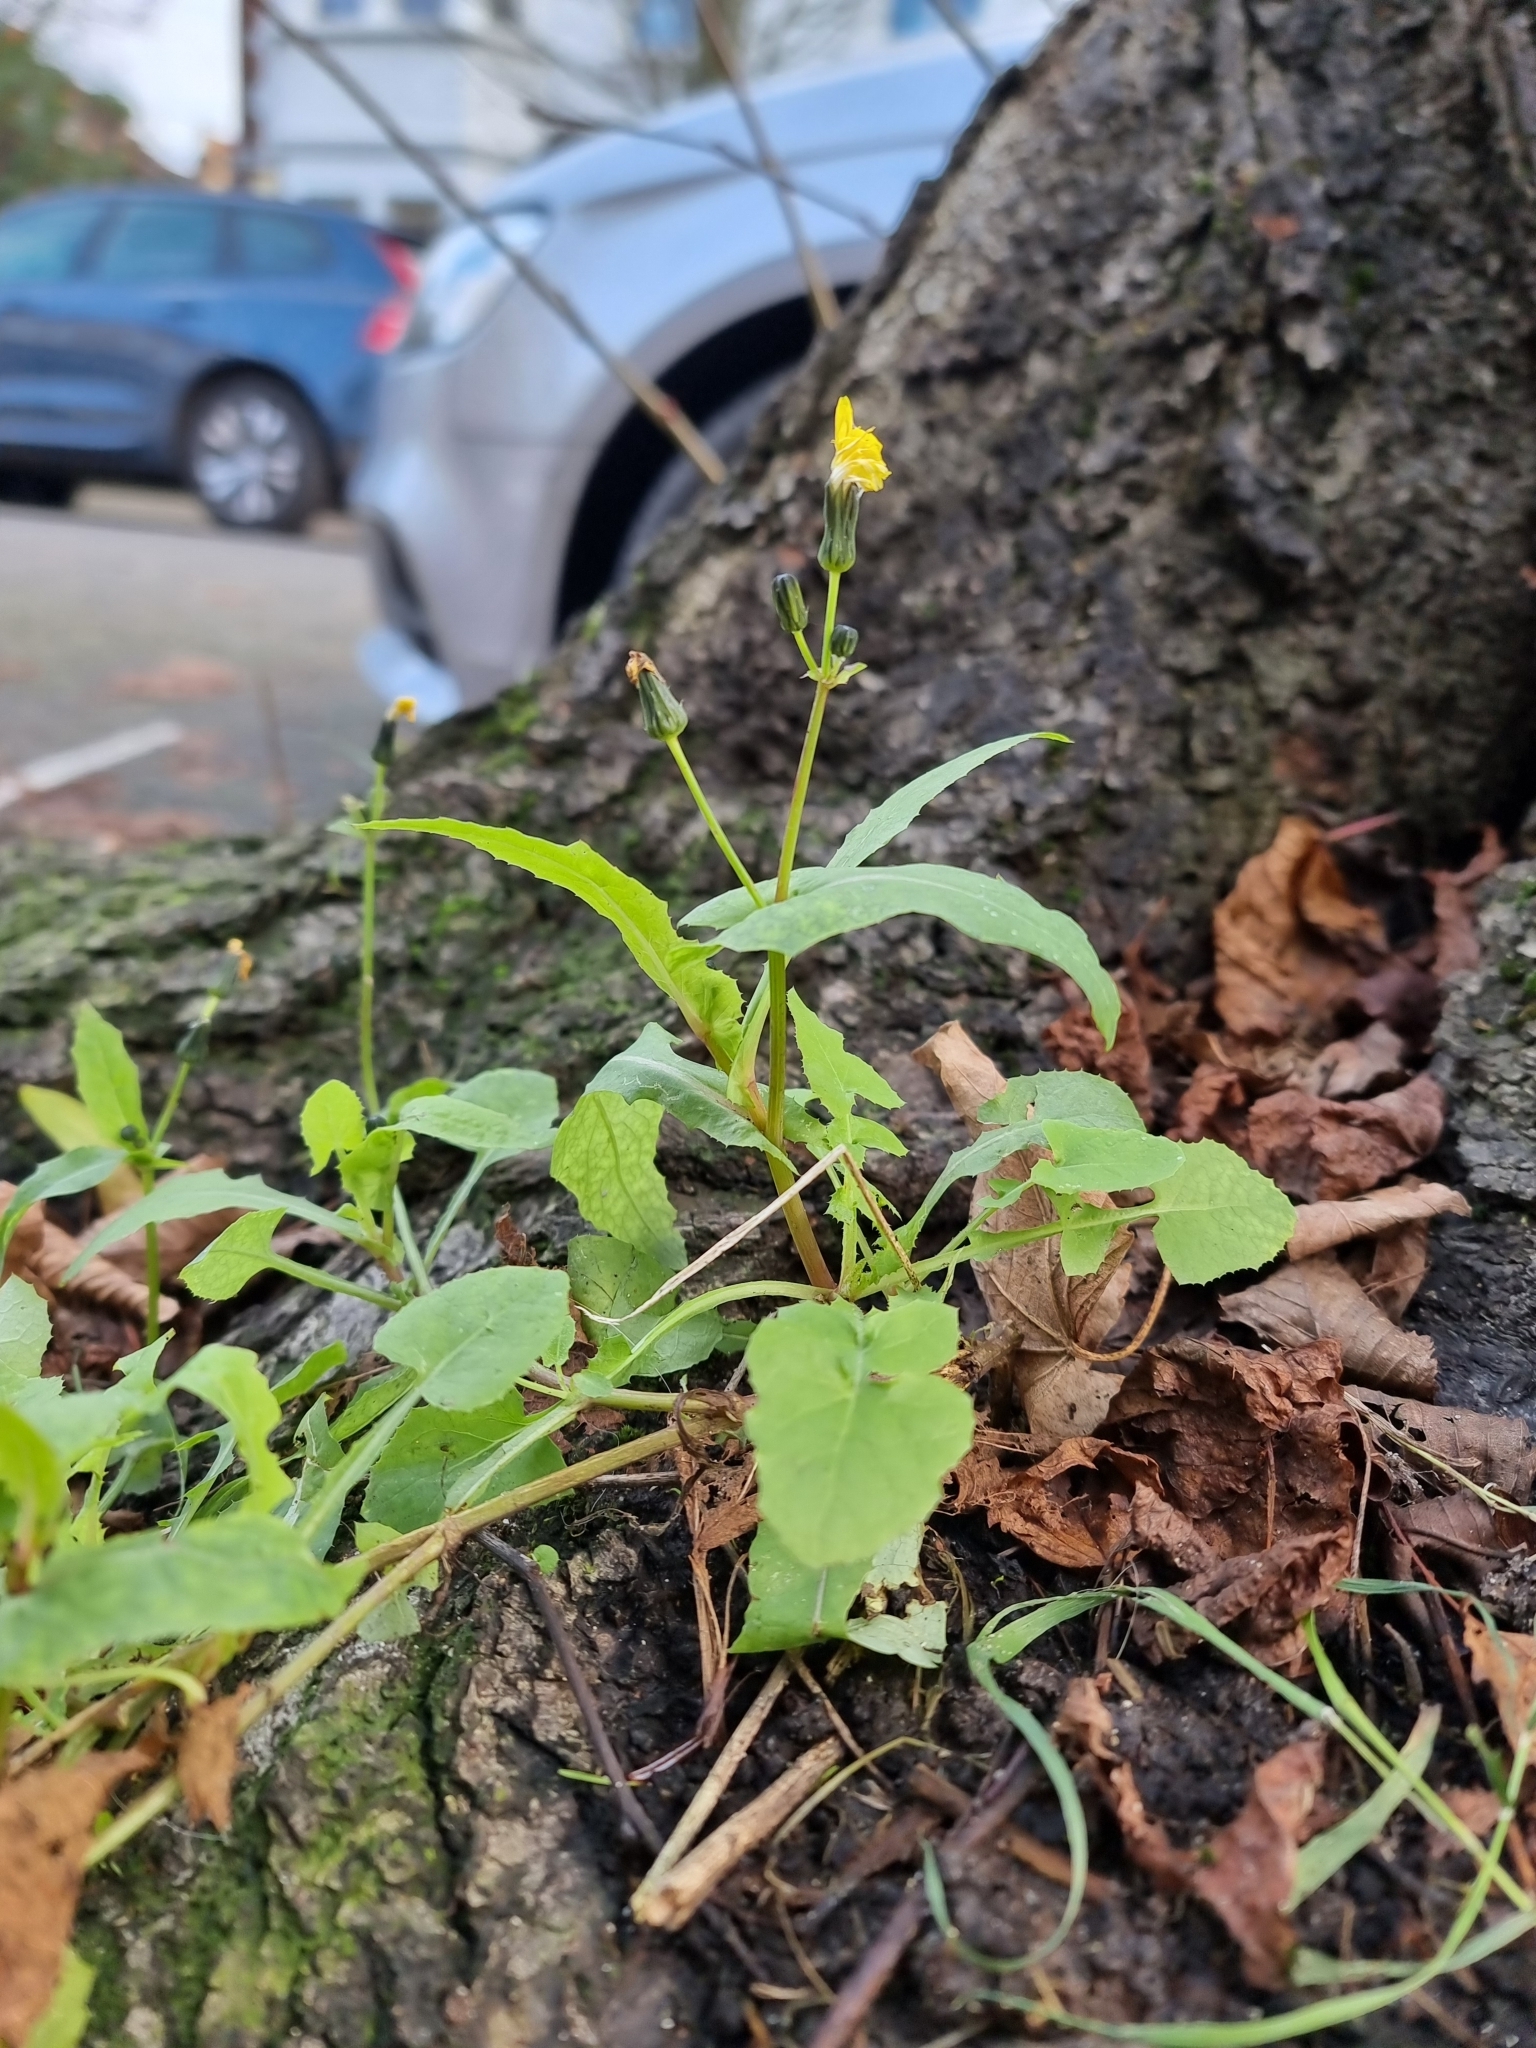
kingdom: Plantae
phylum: Tracheophyta
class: Magnoliopsida
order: Asterales
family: Asteraceae
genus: Sonchus
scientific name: Sonchus oleraceus
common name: Common sowthistle
